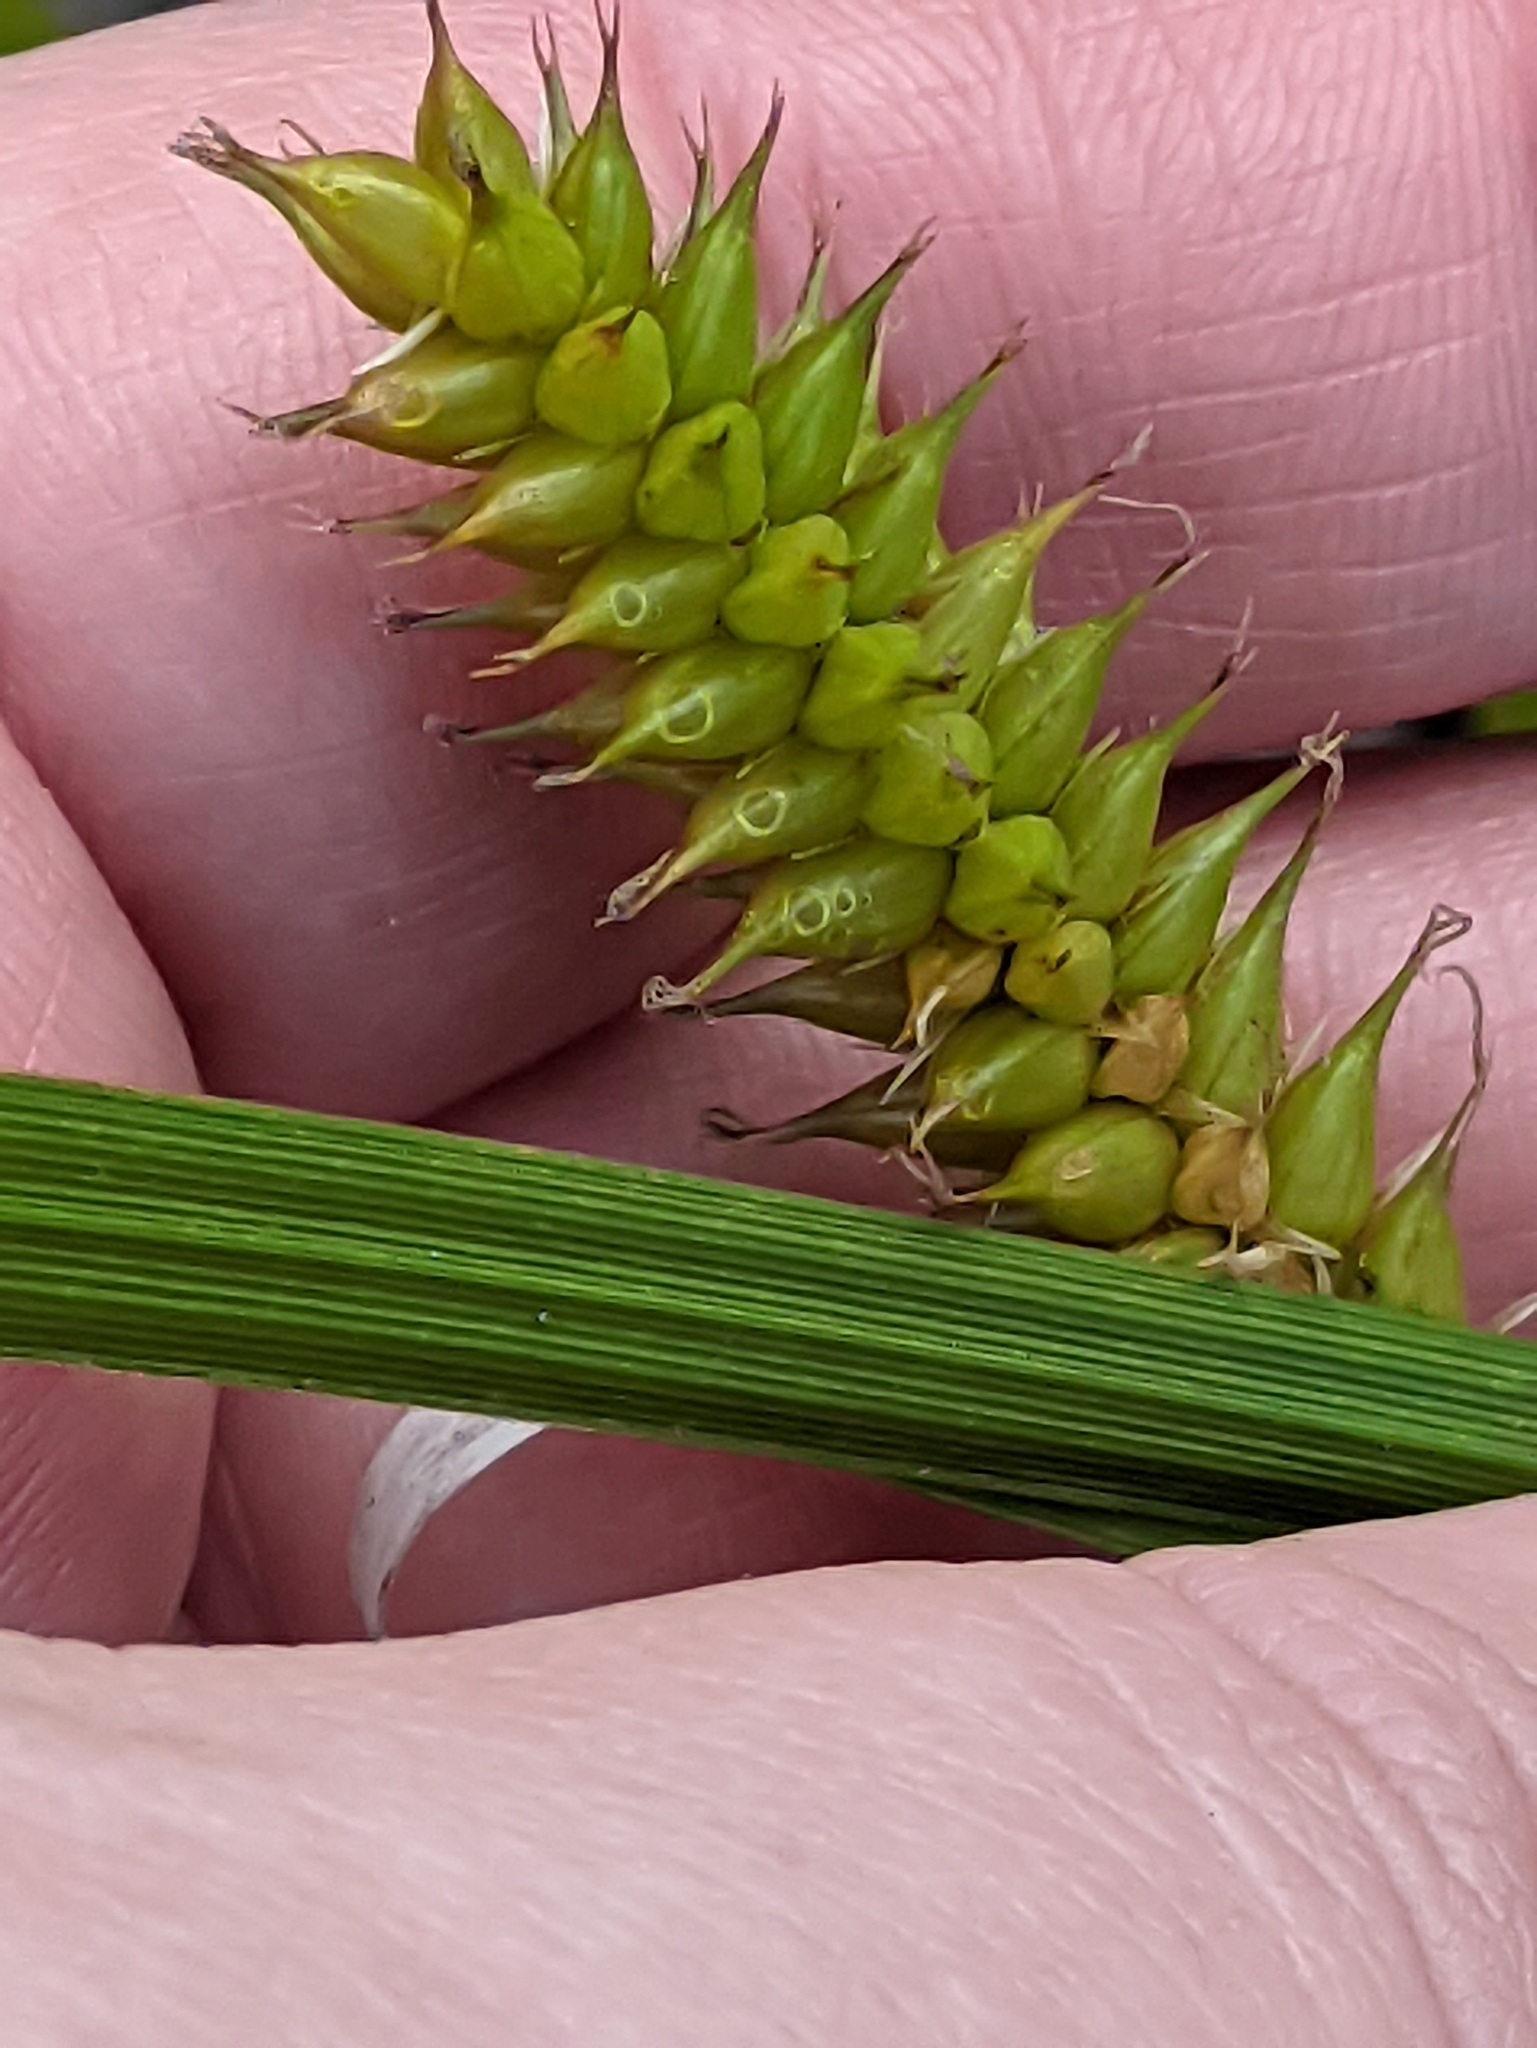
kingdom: Plantae
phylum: Tracheophyta
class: Liliopsida
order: Poales
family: Cyperaceae
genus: Carex
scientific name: Carex vesicaria
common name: Bladder-sedge
